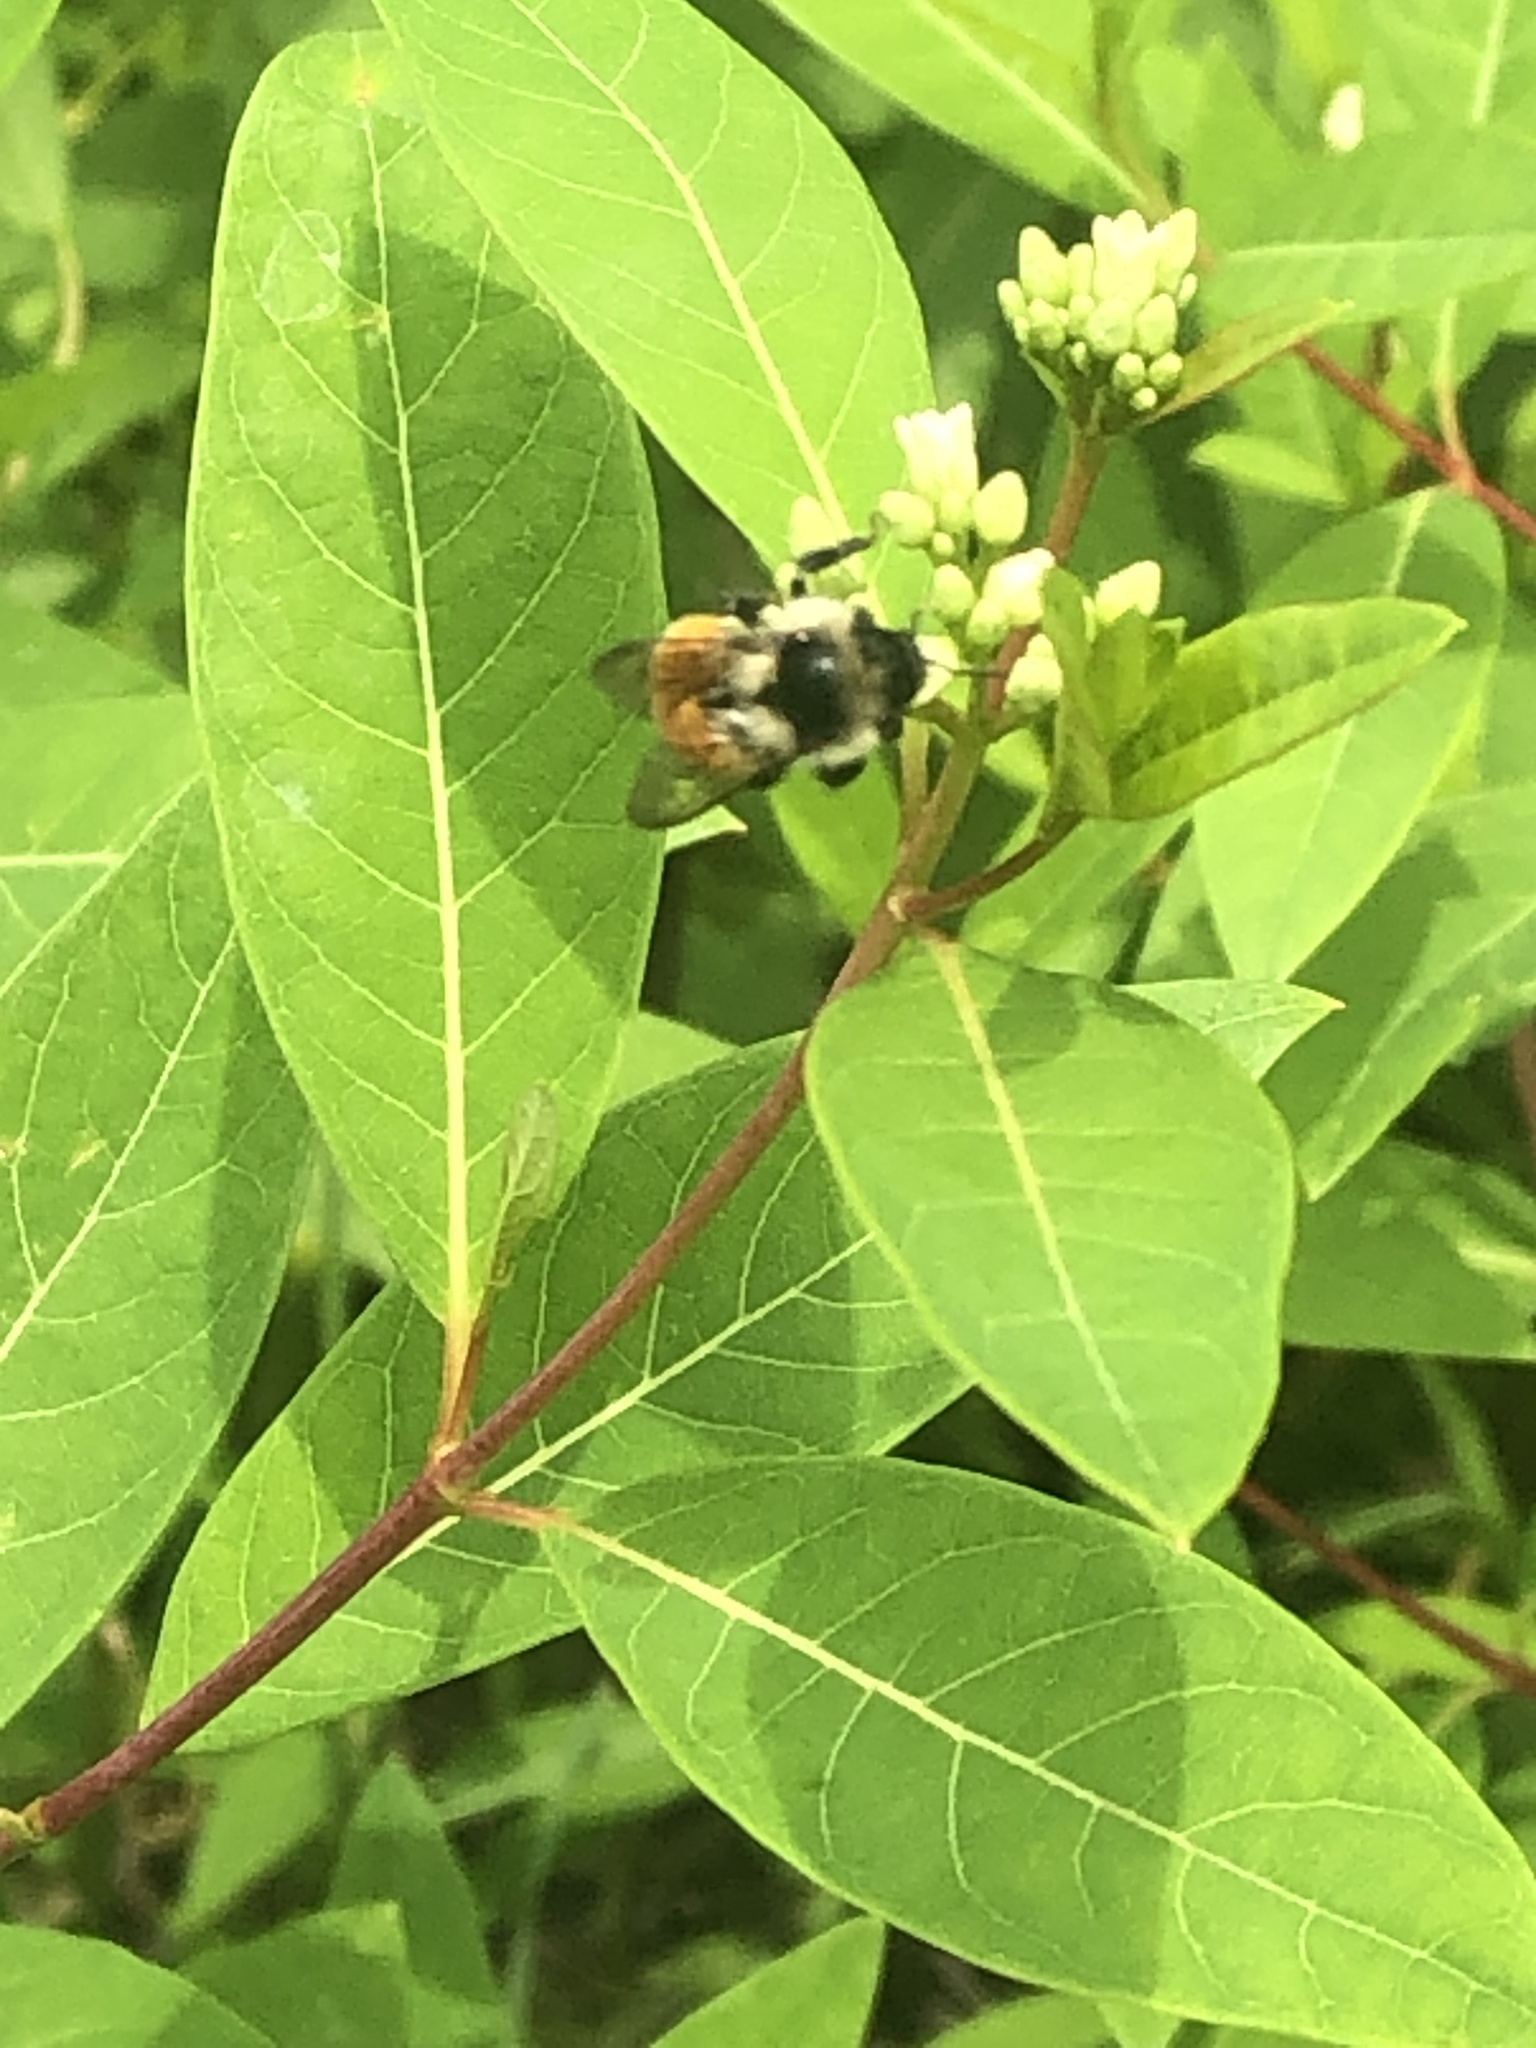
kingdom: Animalia
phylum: Arthropoda
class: Insecta
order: Hymenoptera
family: Apidae
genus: Bombus
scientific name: Bombus ternarius
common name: Tri-colored bumble bee
